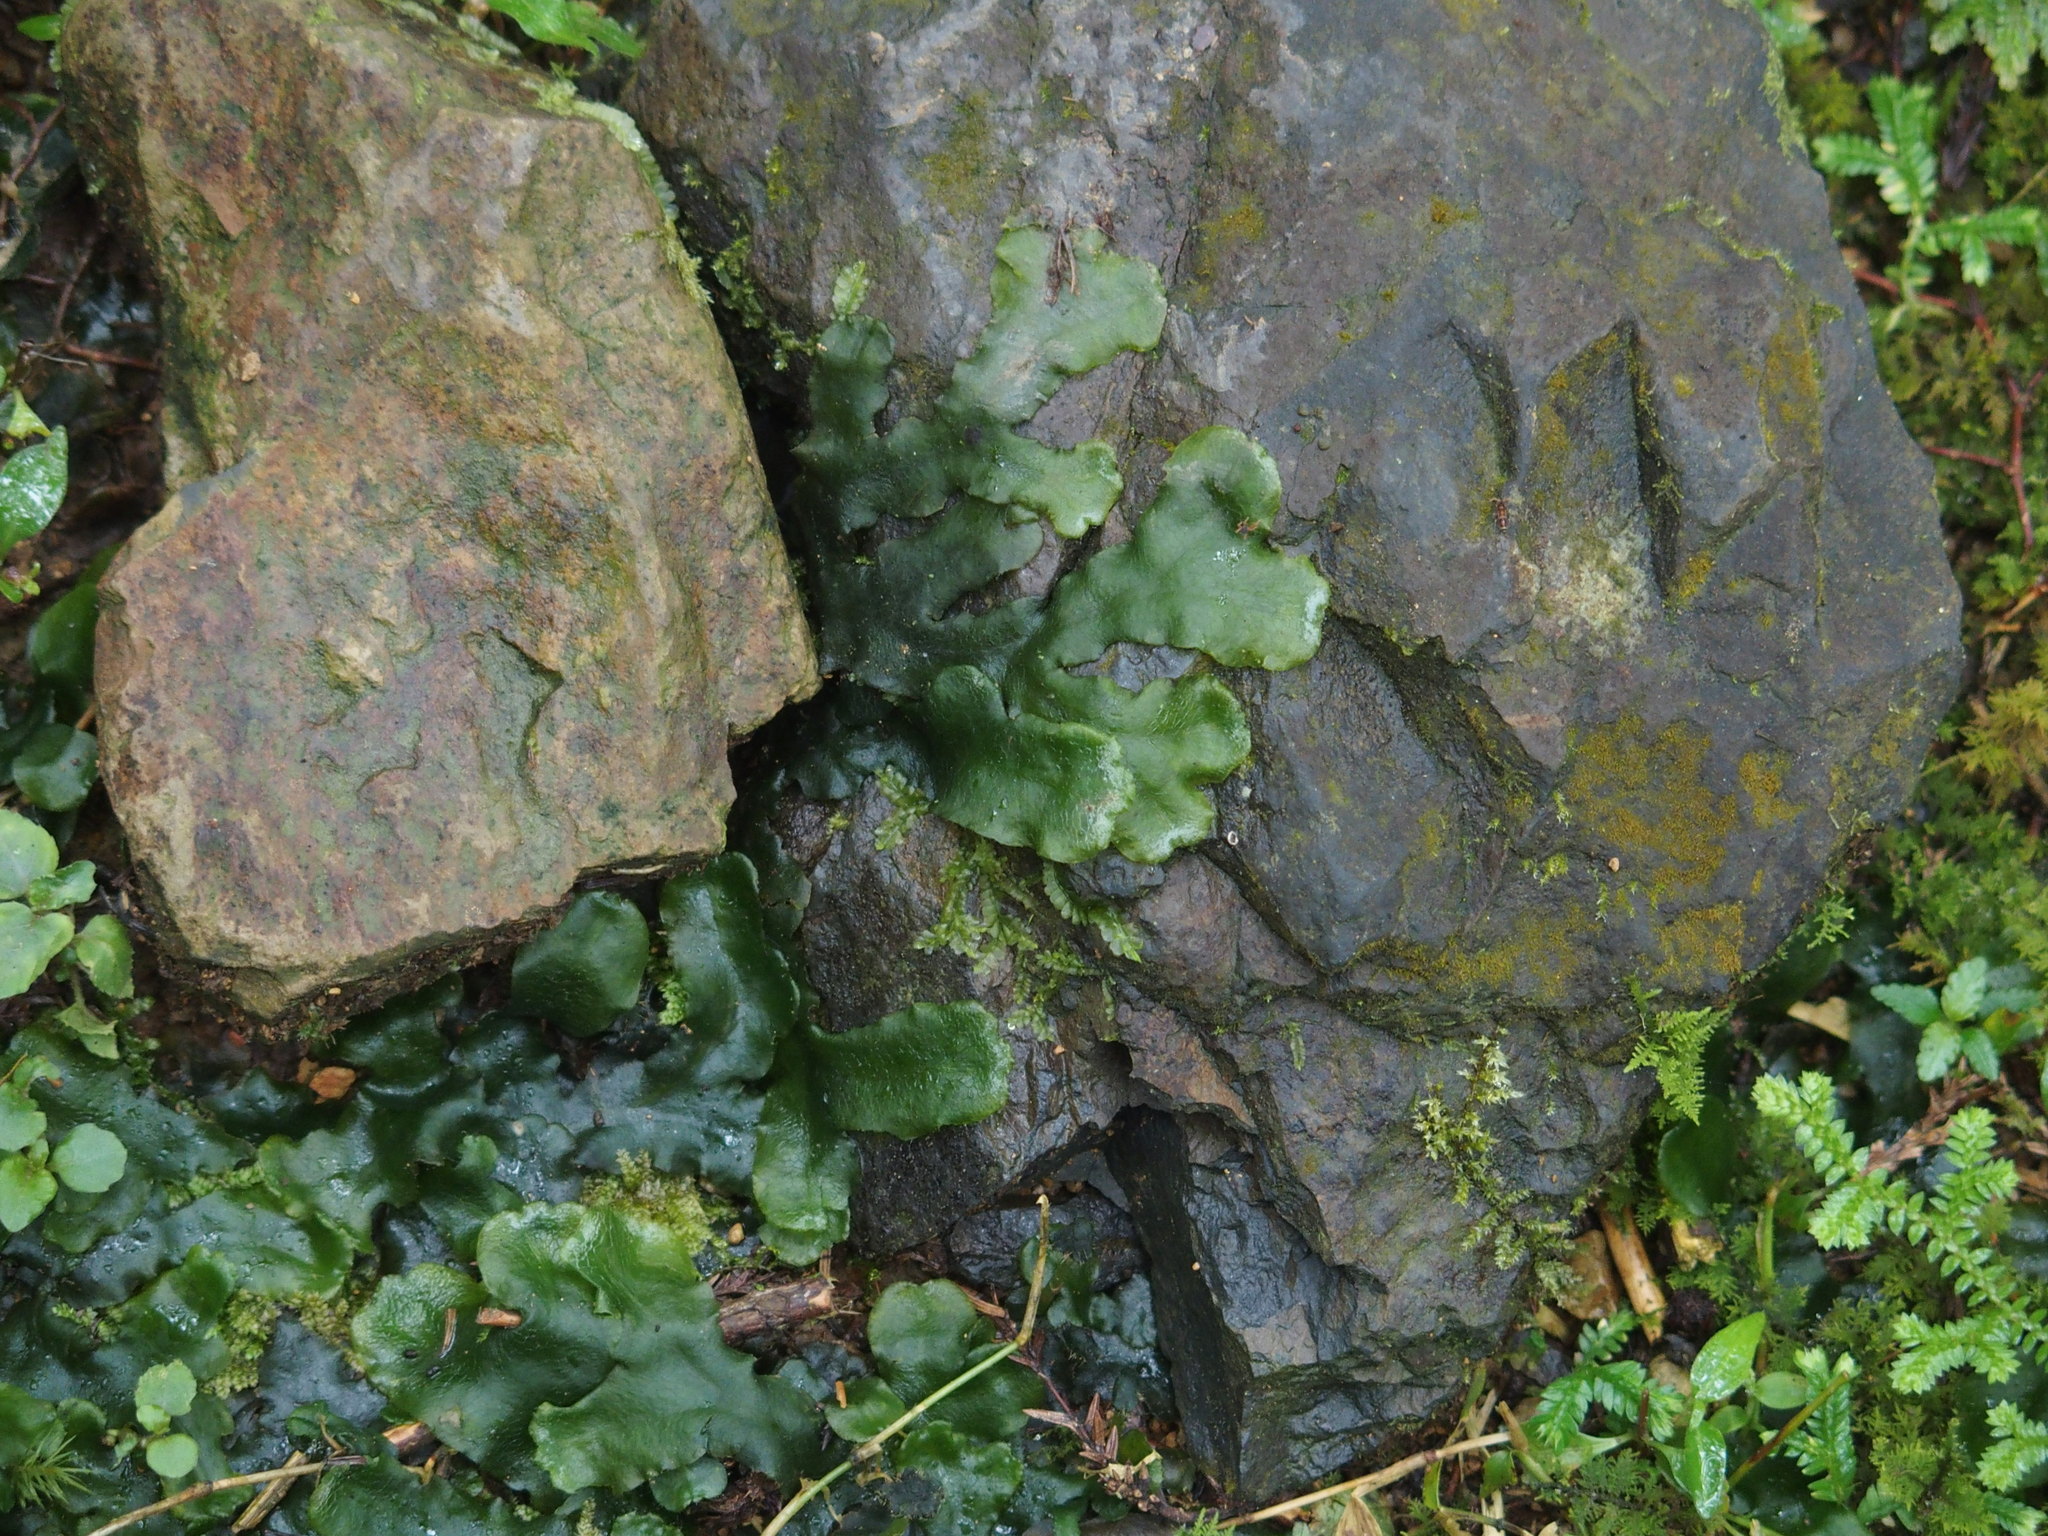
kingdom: Plantae
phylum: Marchantiophyta
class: Marchantiopsida
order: Marchantiales
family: Dumortieraceae
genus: Dumortiera
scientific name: Dumortiera hirsuta
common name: Dumortier's liverwort
